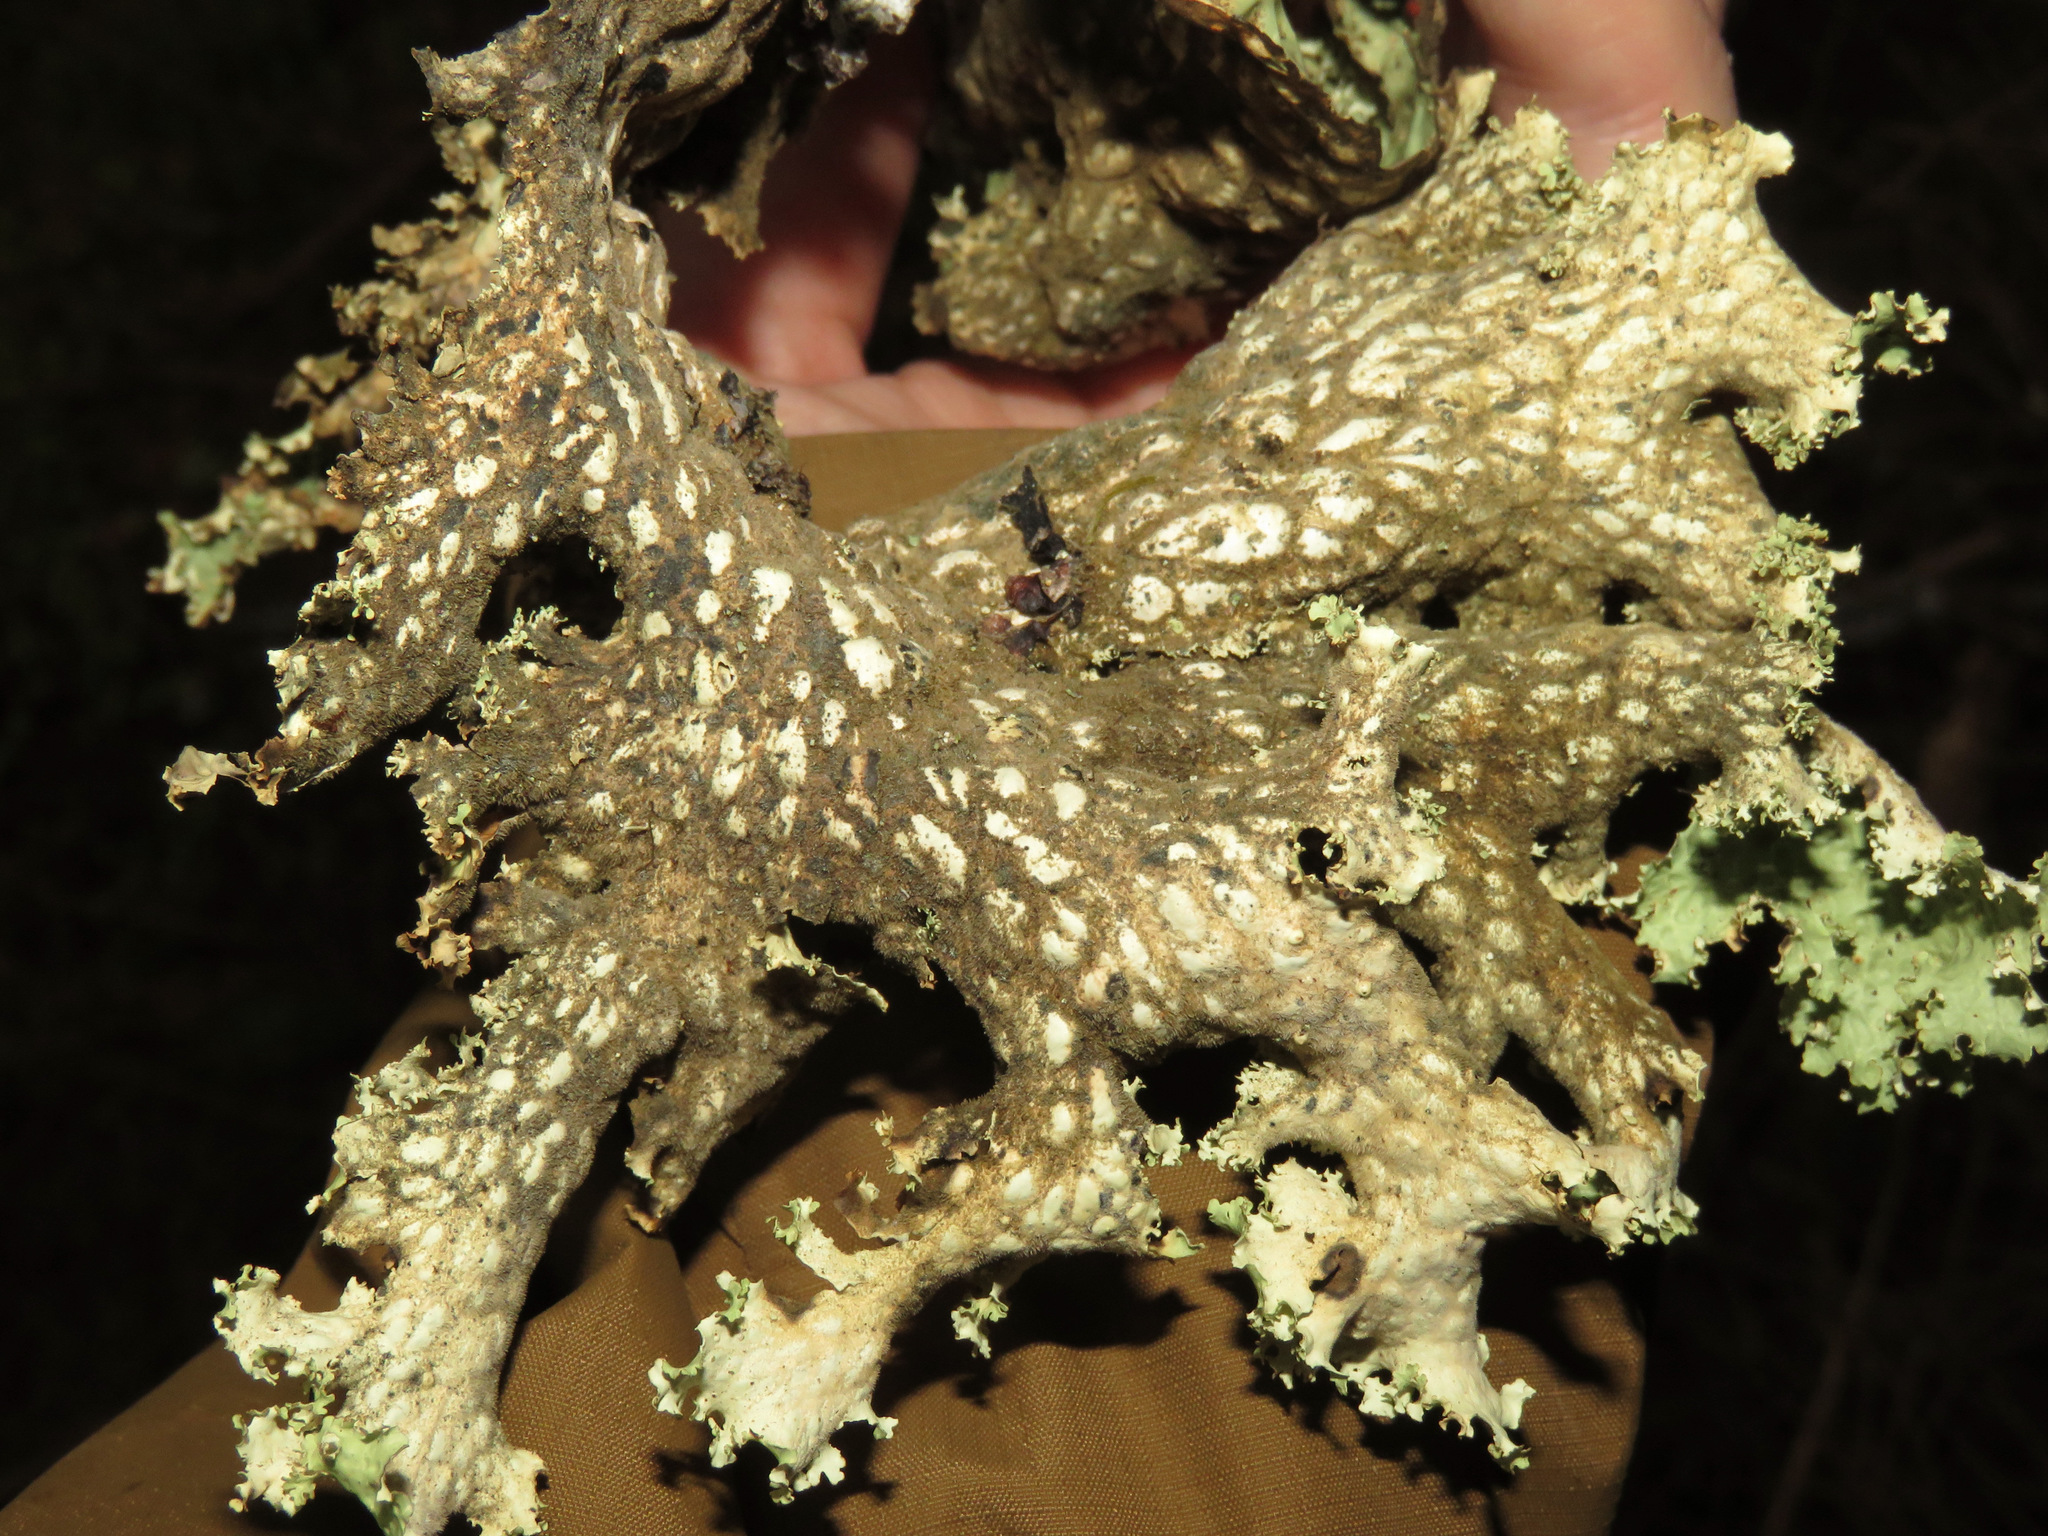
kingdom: Fungi
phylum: Ascomycota
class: Lecanoromycetes
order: Peltigerales
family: Lobariaceae
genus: Lobaria
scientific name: Lobaria oregana
